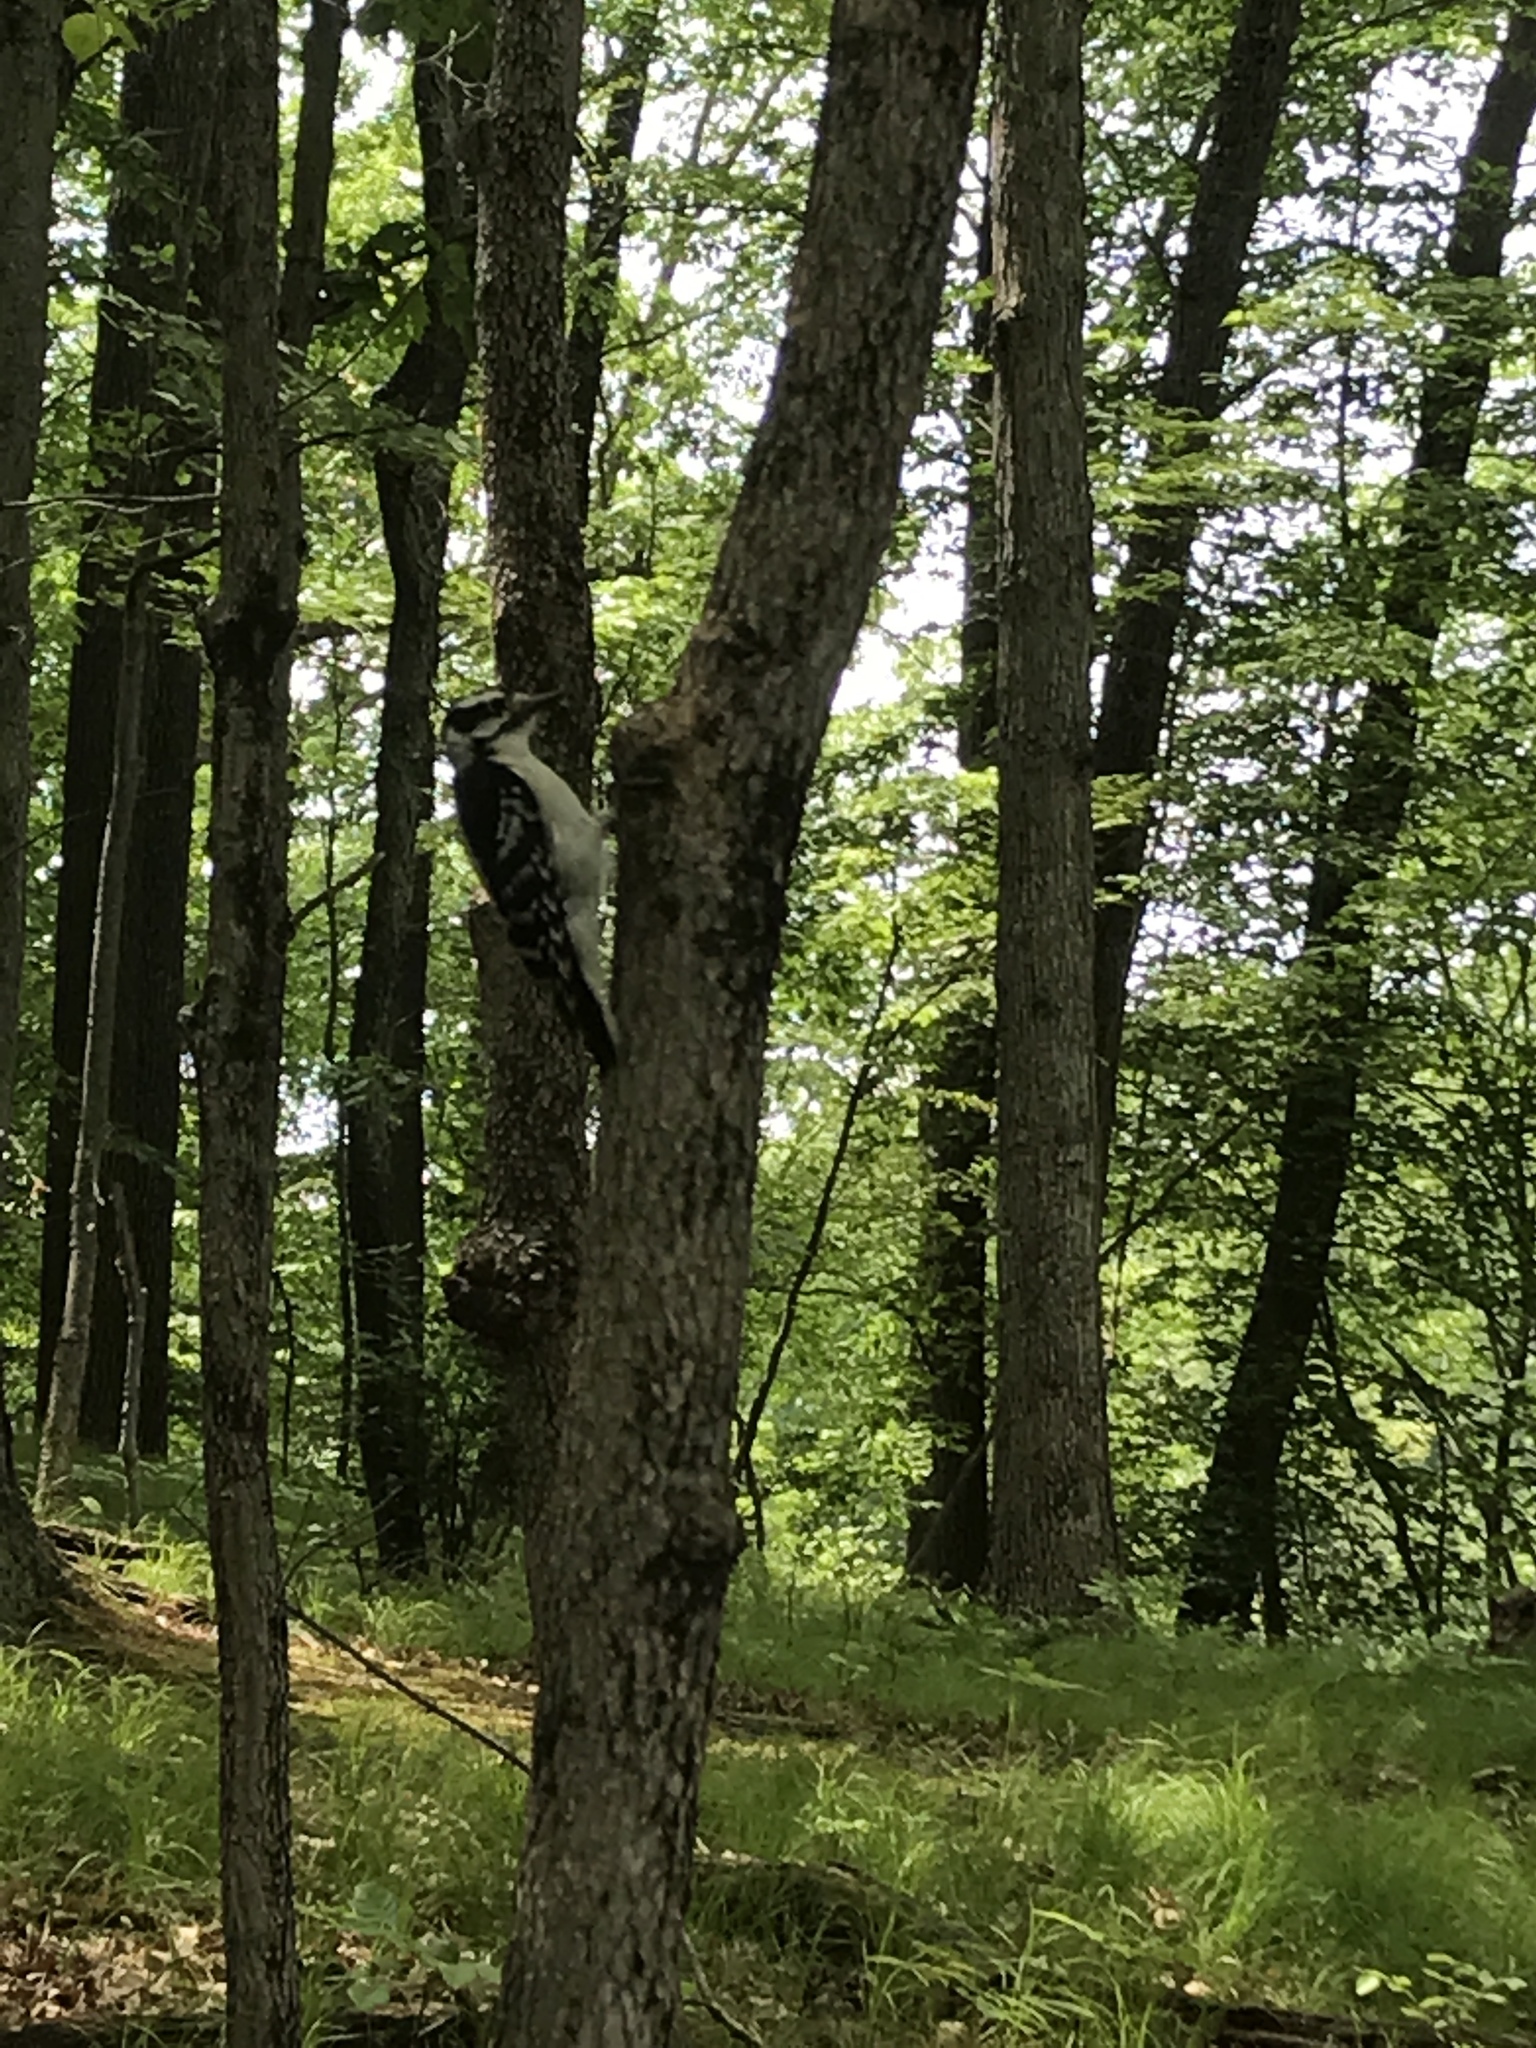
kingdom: Animalia
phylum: Chordata
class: Aves
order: Piciformes
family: Picidae
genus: Leuconotopicus
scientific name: Leuconotopicus villosus
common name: Hairy woodpecker
